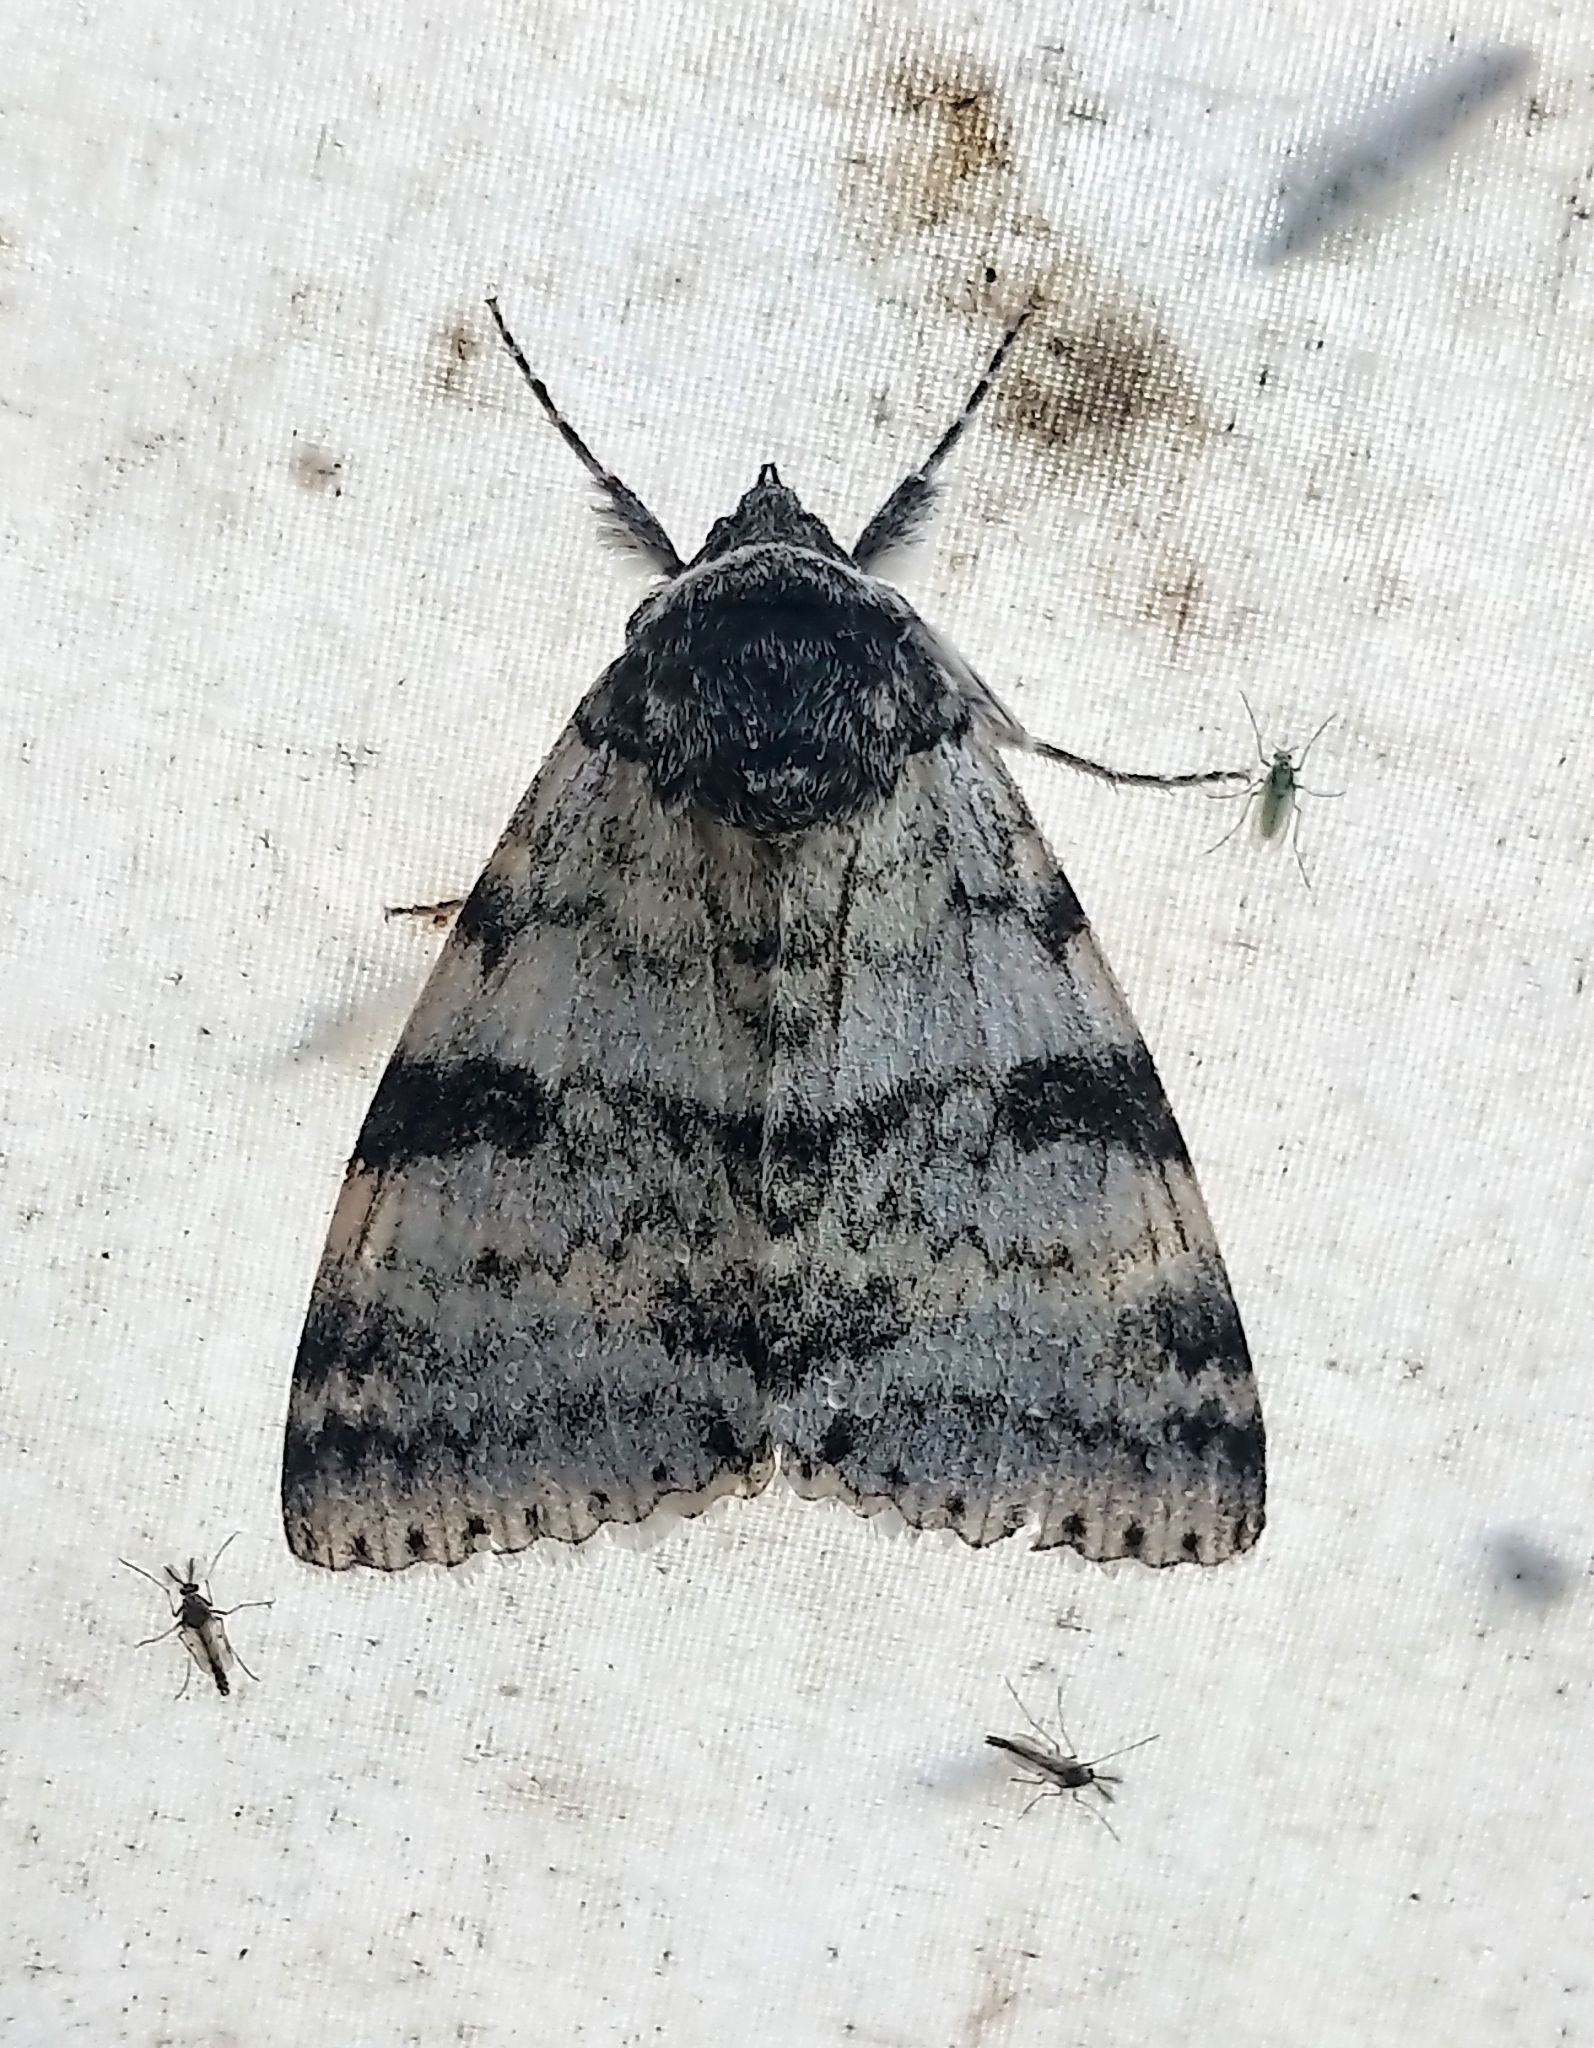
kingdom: Animalia
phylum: Arthropoda
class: Insecta
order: Lepidoptera
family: Erebidae
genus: Catocala
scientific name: Catocala relicta
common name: White underwing
